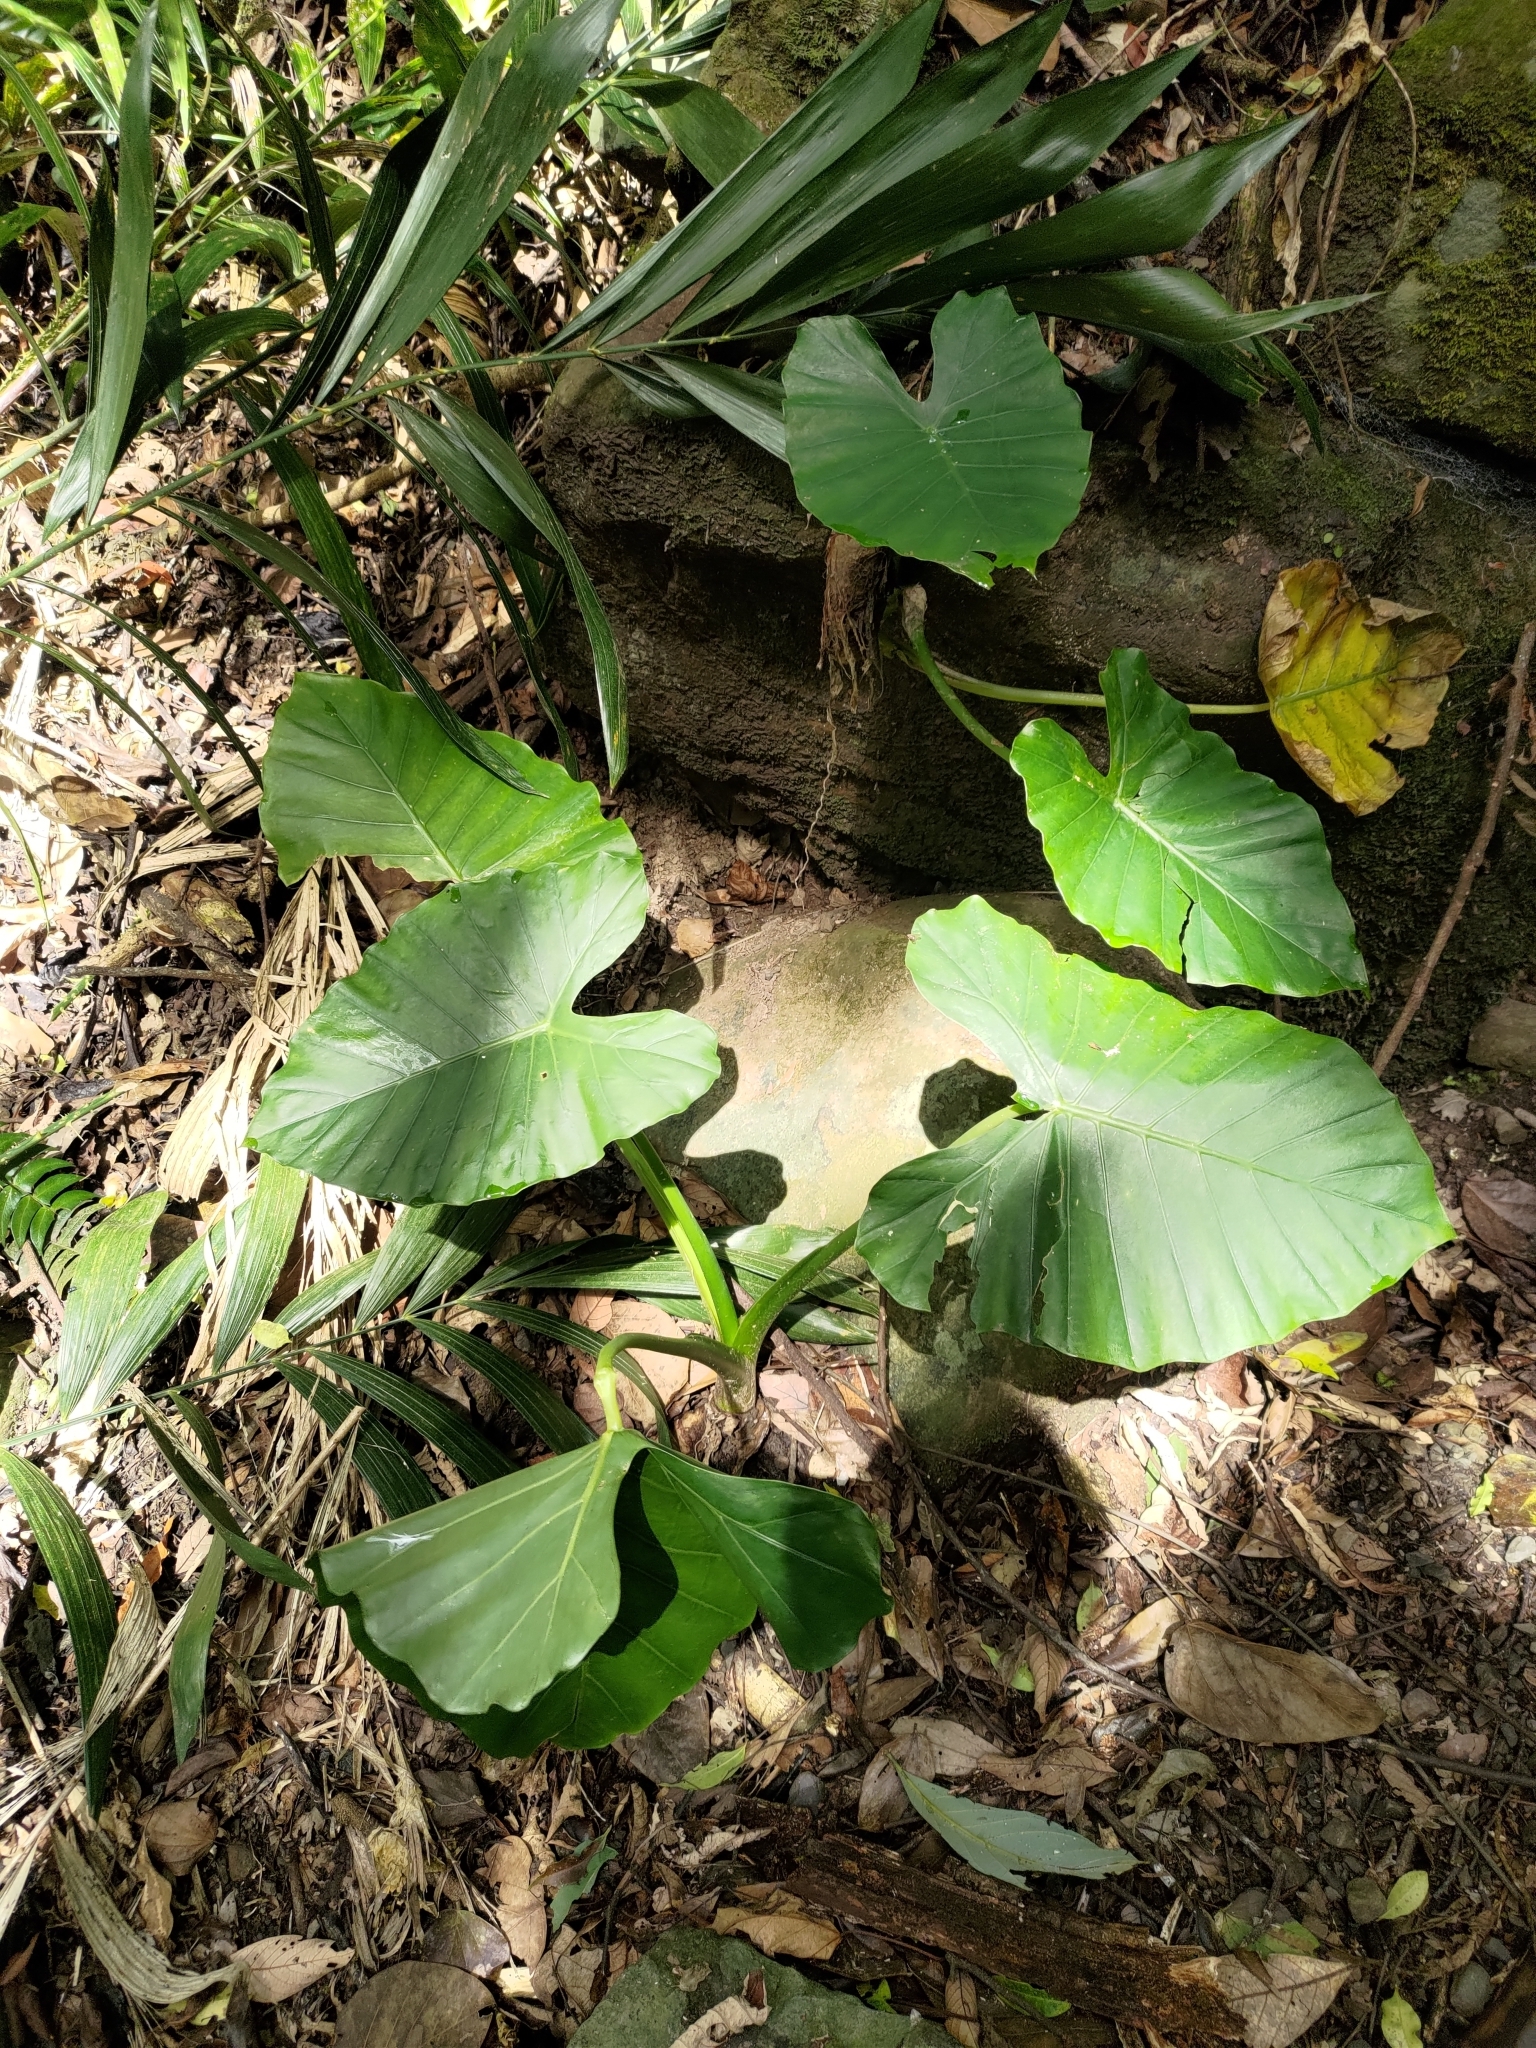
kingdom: Plantae
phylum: Tracheophyta
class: Liliopsida
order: Alismatales
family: Araceae
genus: Alocasia
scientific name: Alocasia odora
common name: Asian taro
